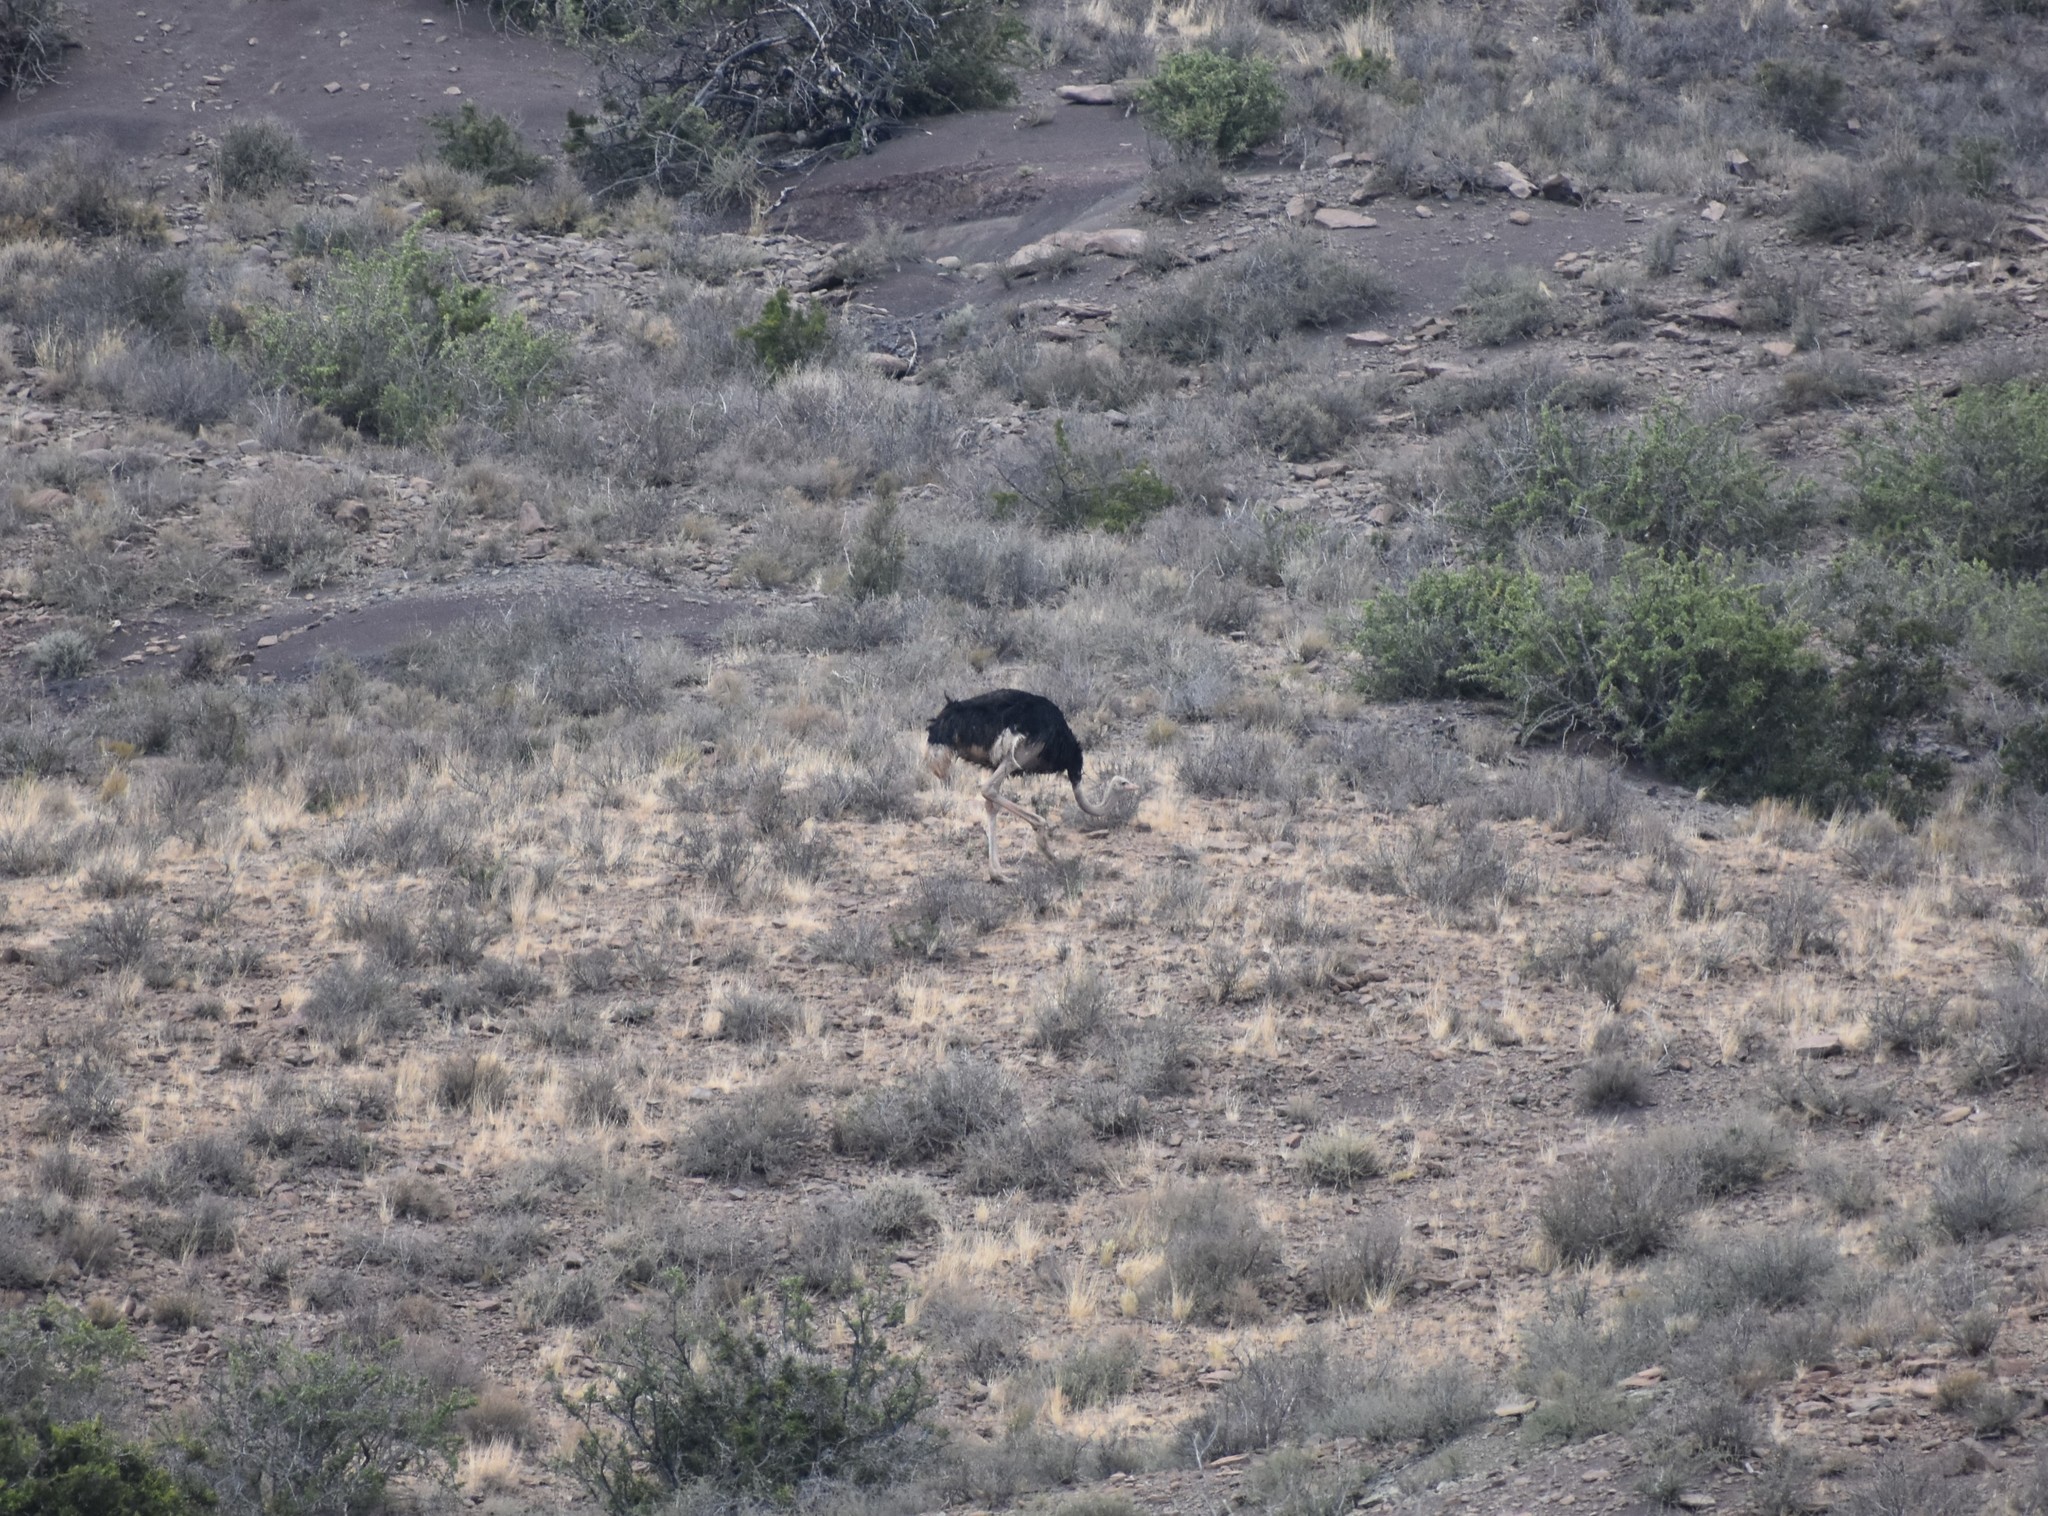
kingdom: Animalia
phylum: Chordata
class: Aves
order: Struthioniformes
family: Struthionidae
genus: Struthio
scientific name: Struthio camelus
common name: Common ostrich
